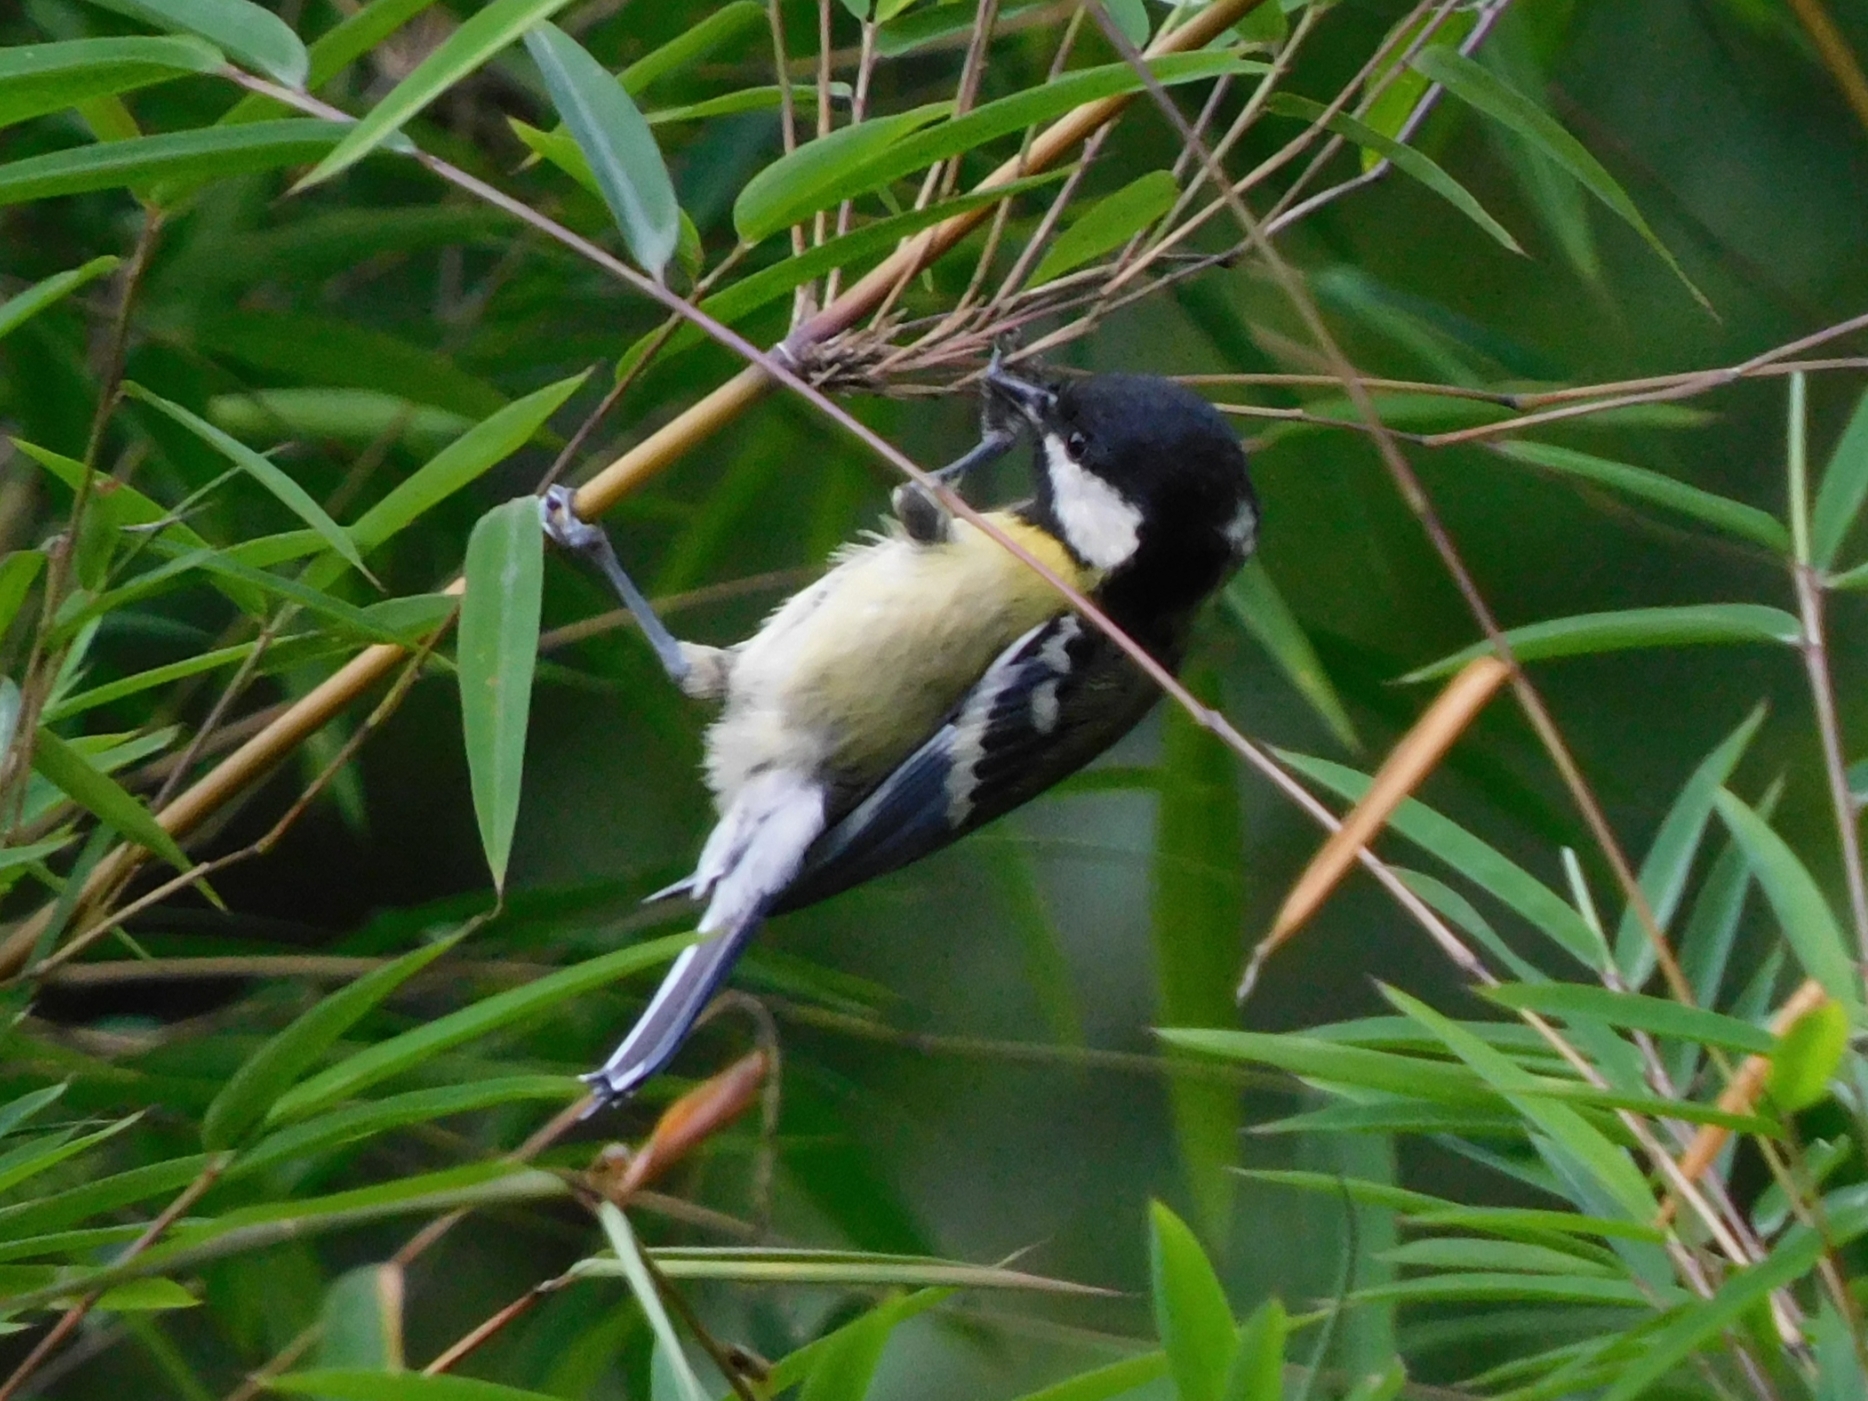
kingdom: Animalia
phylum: Chordata
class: Aves
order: Passeriformes
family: Paridae
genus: Parus
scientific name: Parus monticolus
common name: Green-backed tit
